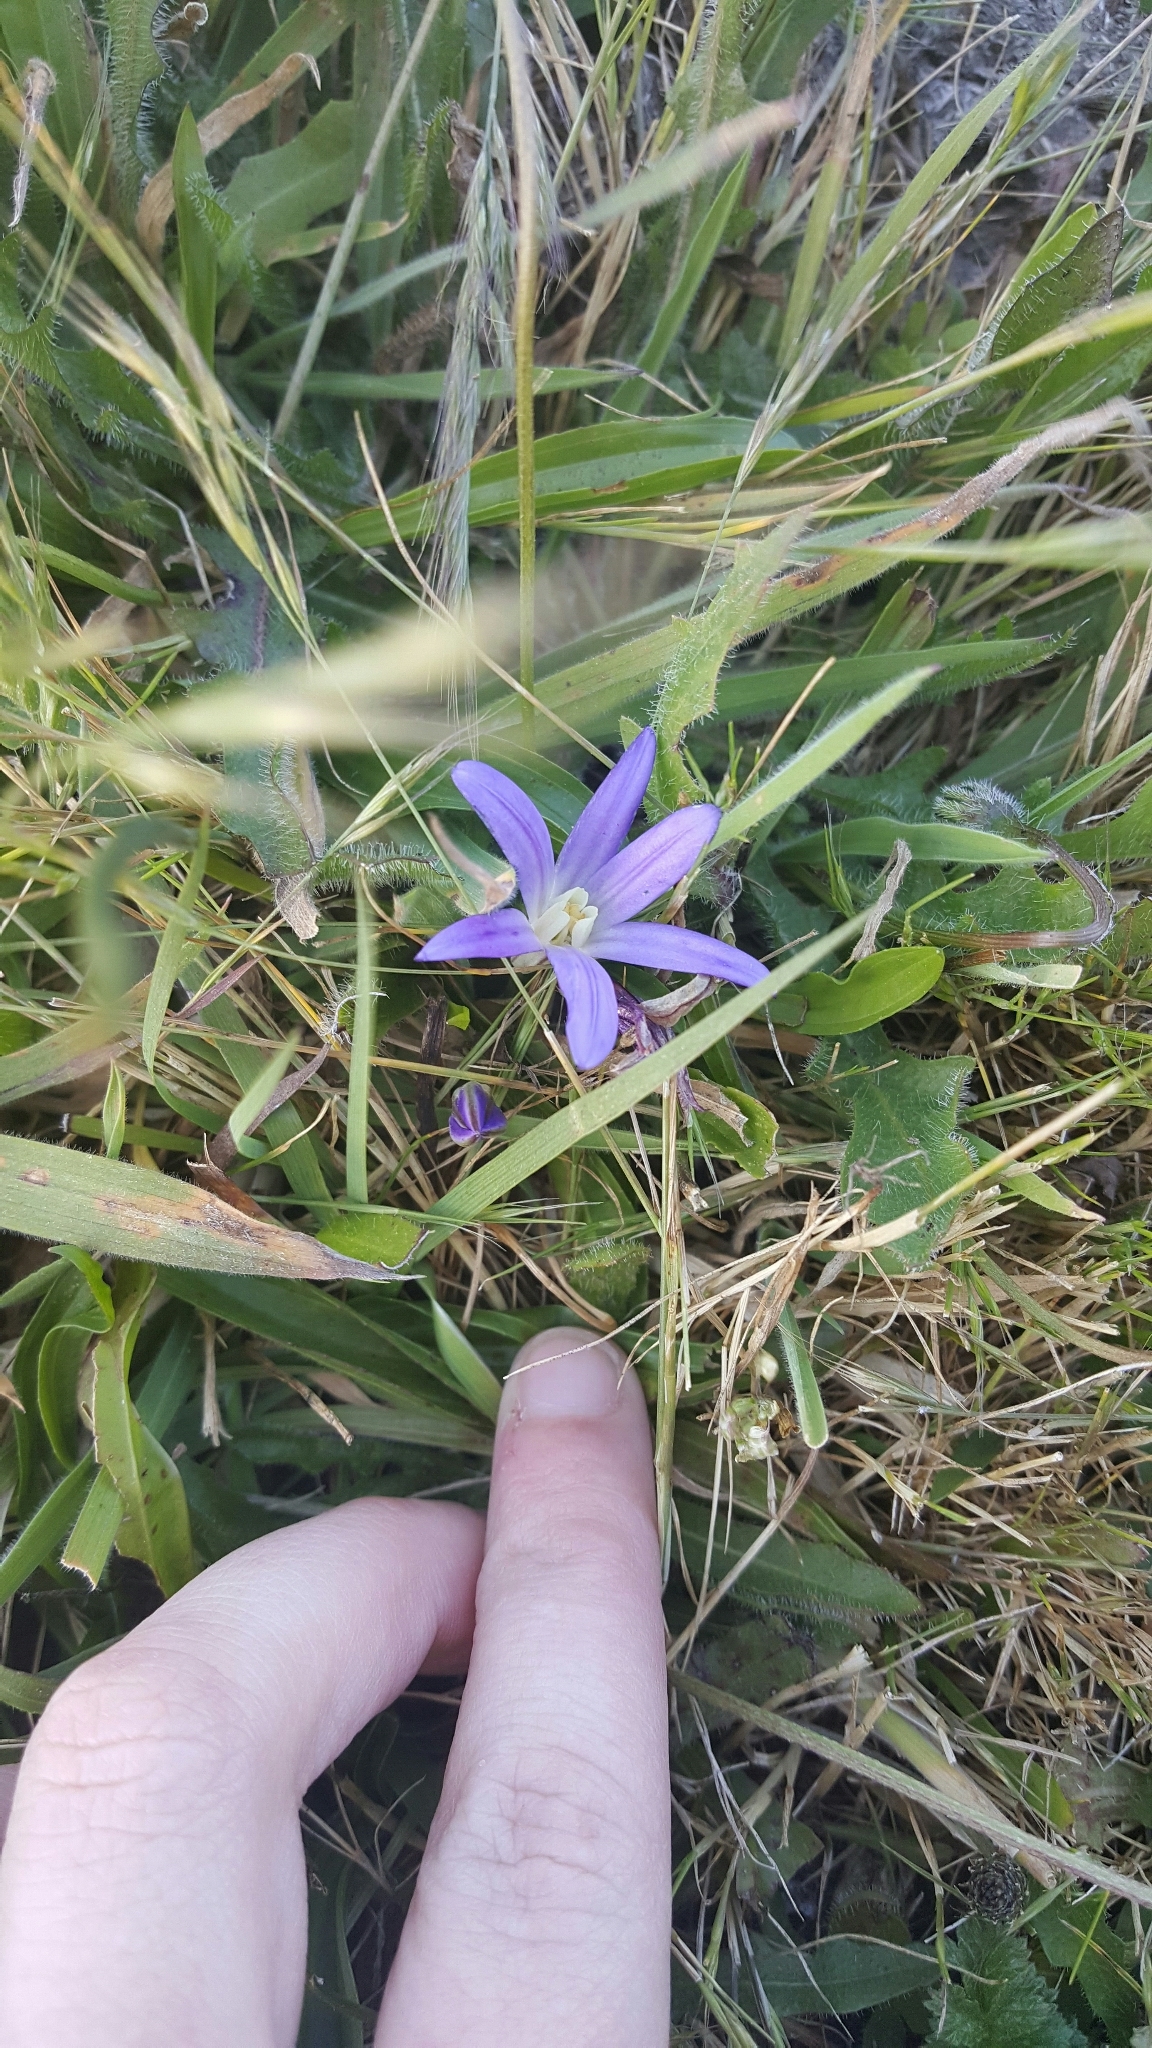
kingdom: Plantae
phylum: Tracheophyta
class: Liliopsida
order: Asparagales
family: Asparagaceae
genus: Brodiaea
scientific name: Brodiaea terrestris
